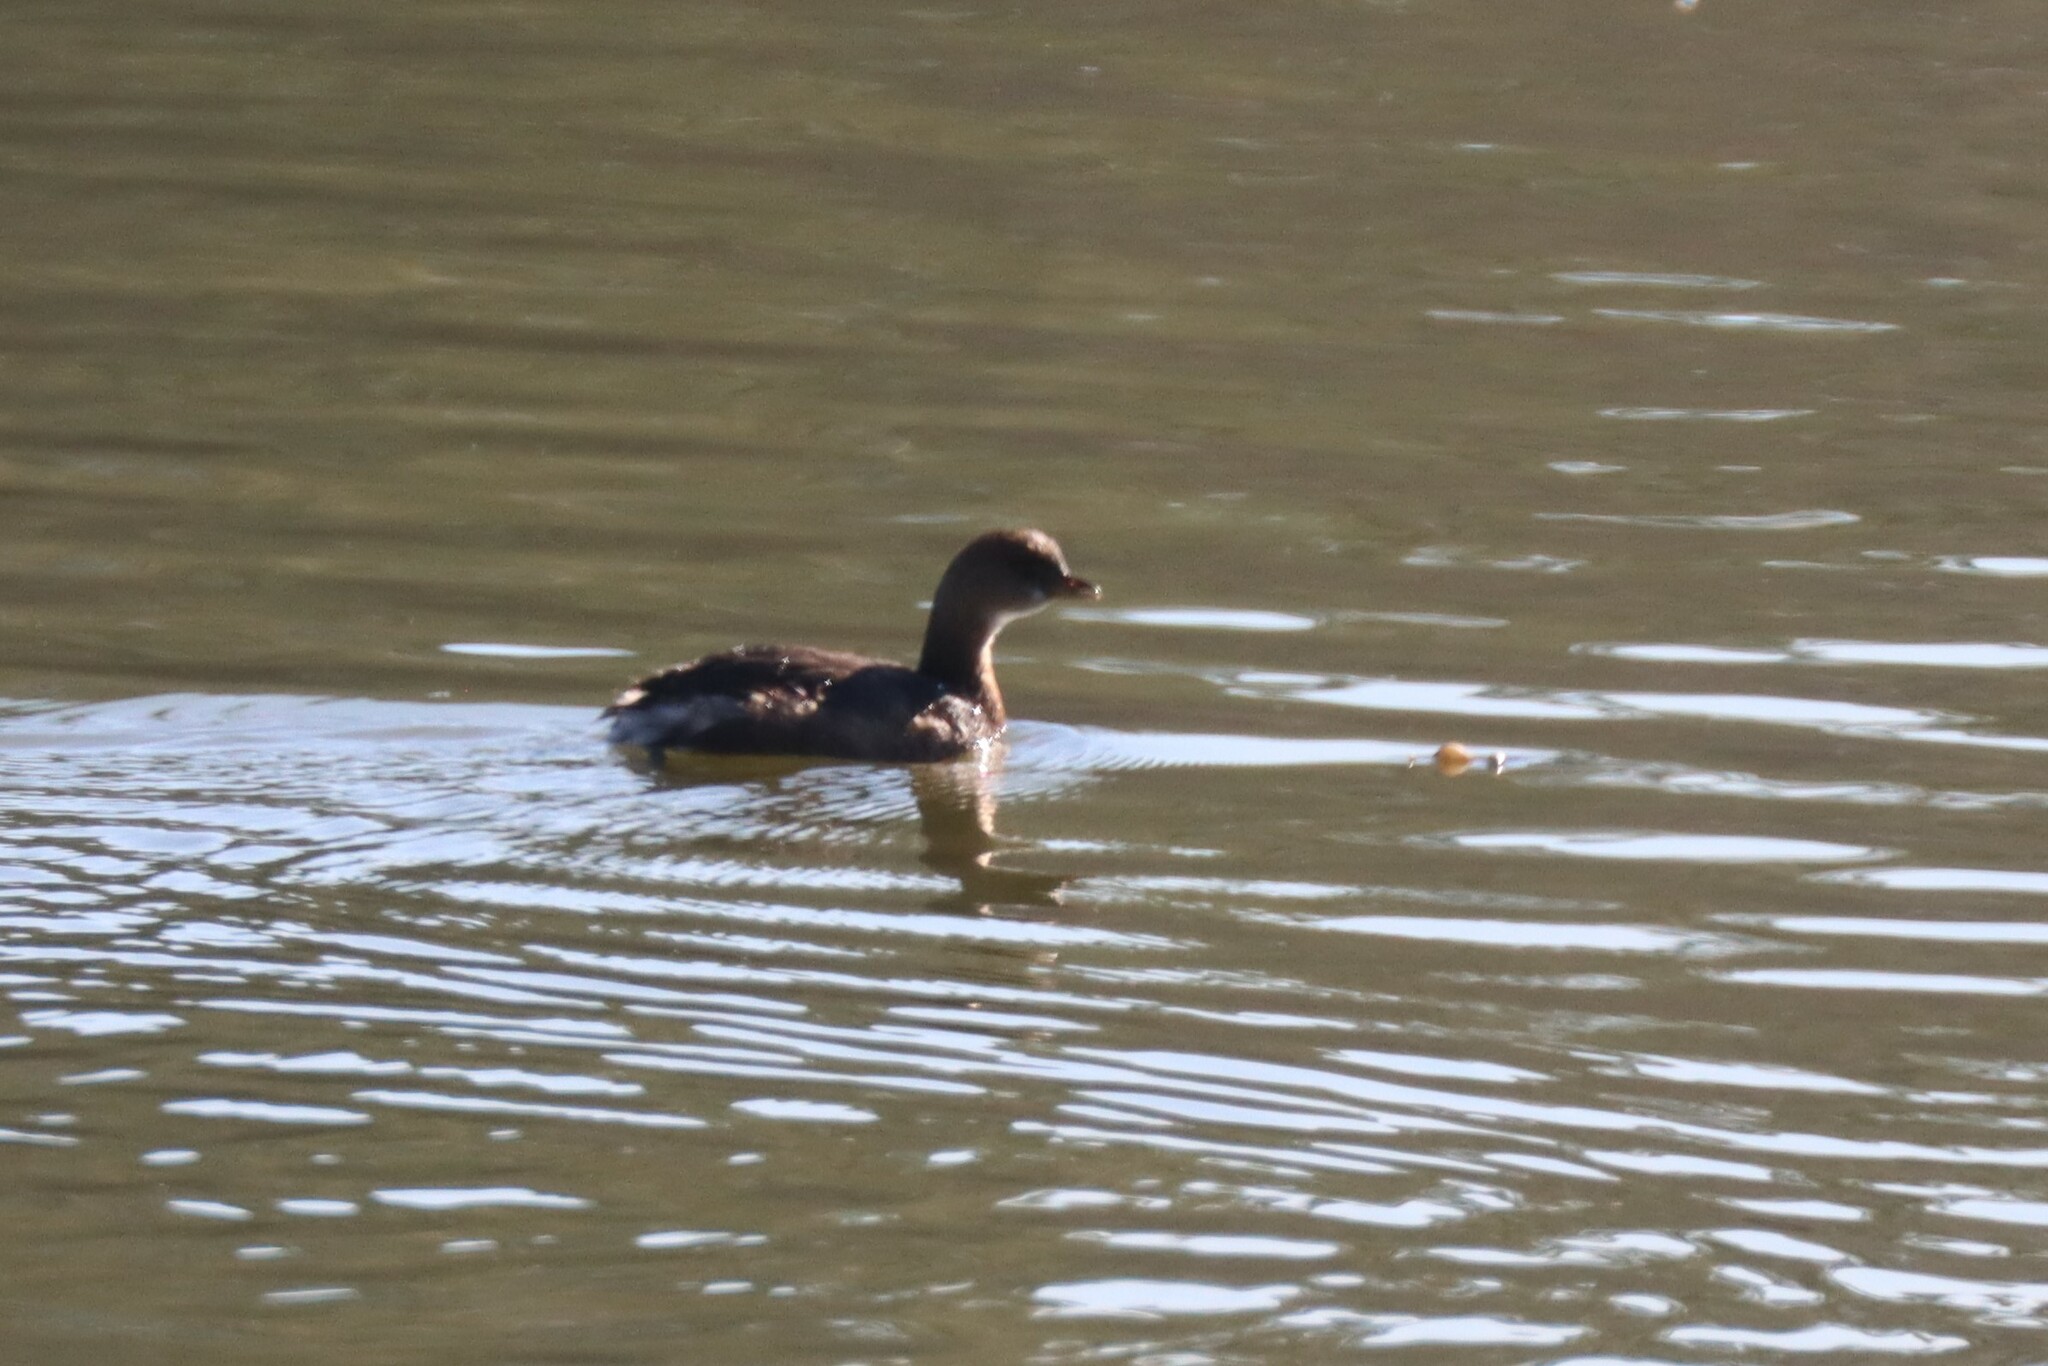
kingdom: Animalia
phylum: Chordata
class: Aves
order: Podicipediformes
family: Podicipedidae
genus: Podilymbus
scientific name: Podilymbus podiceps
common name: Pied-billed grebe
